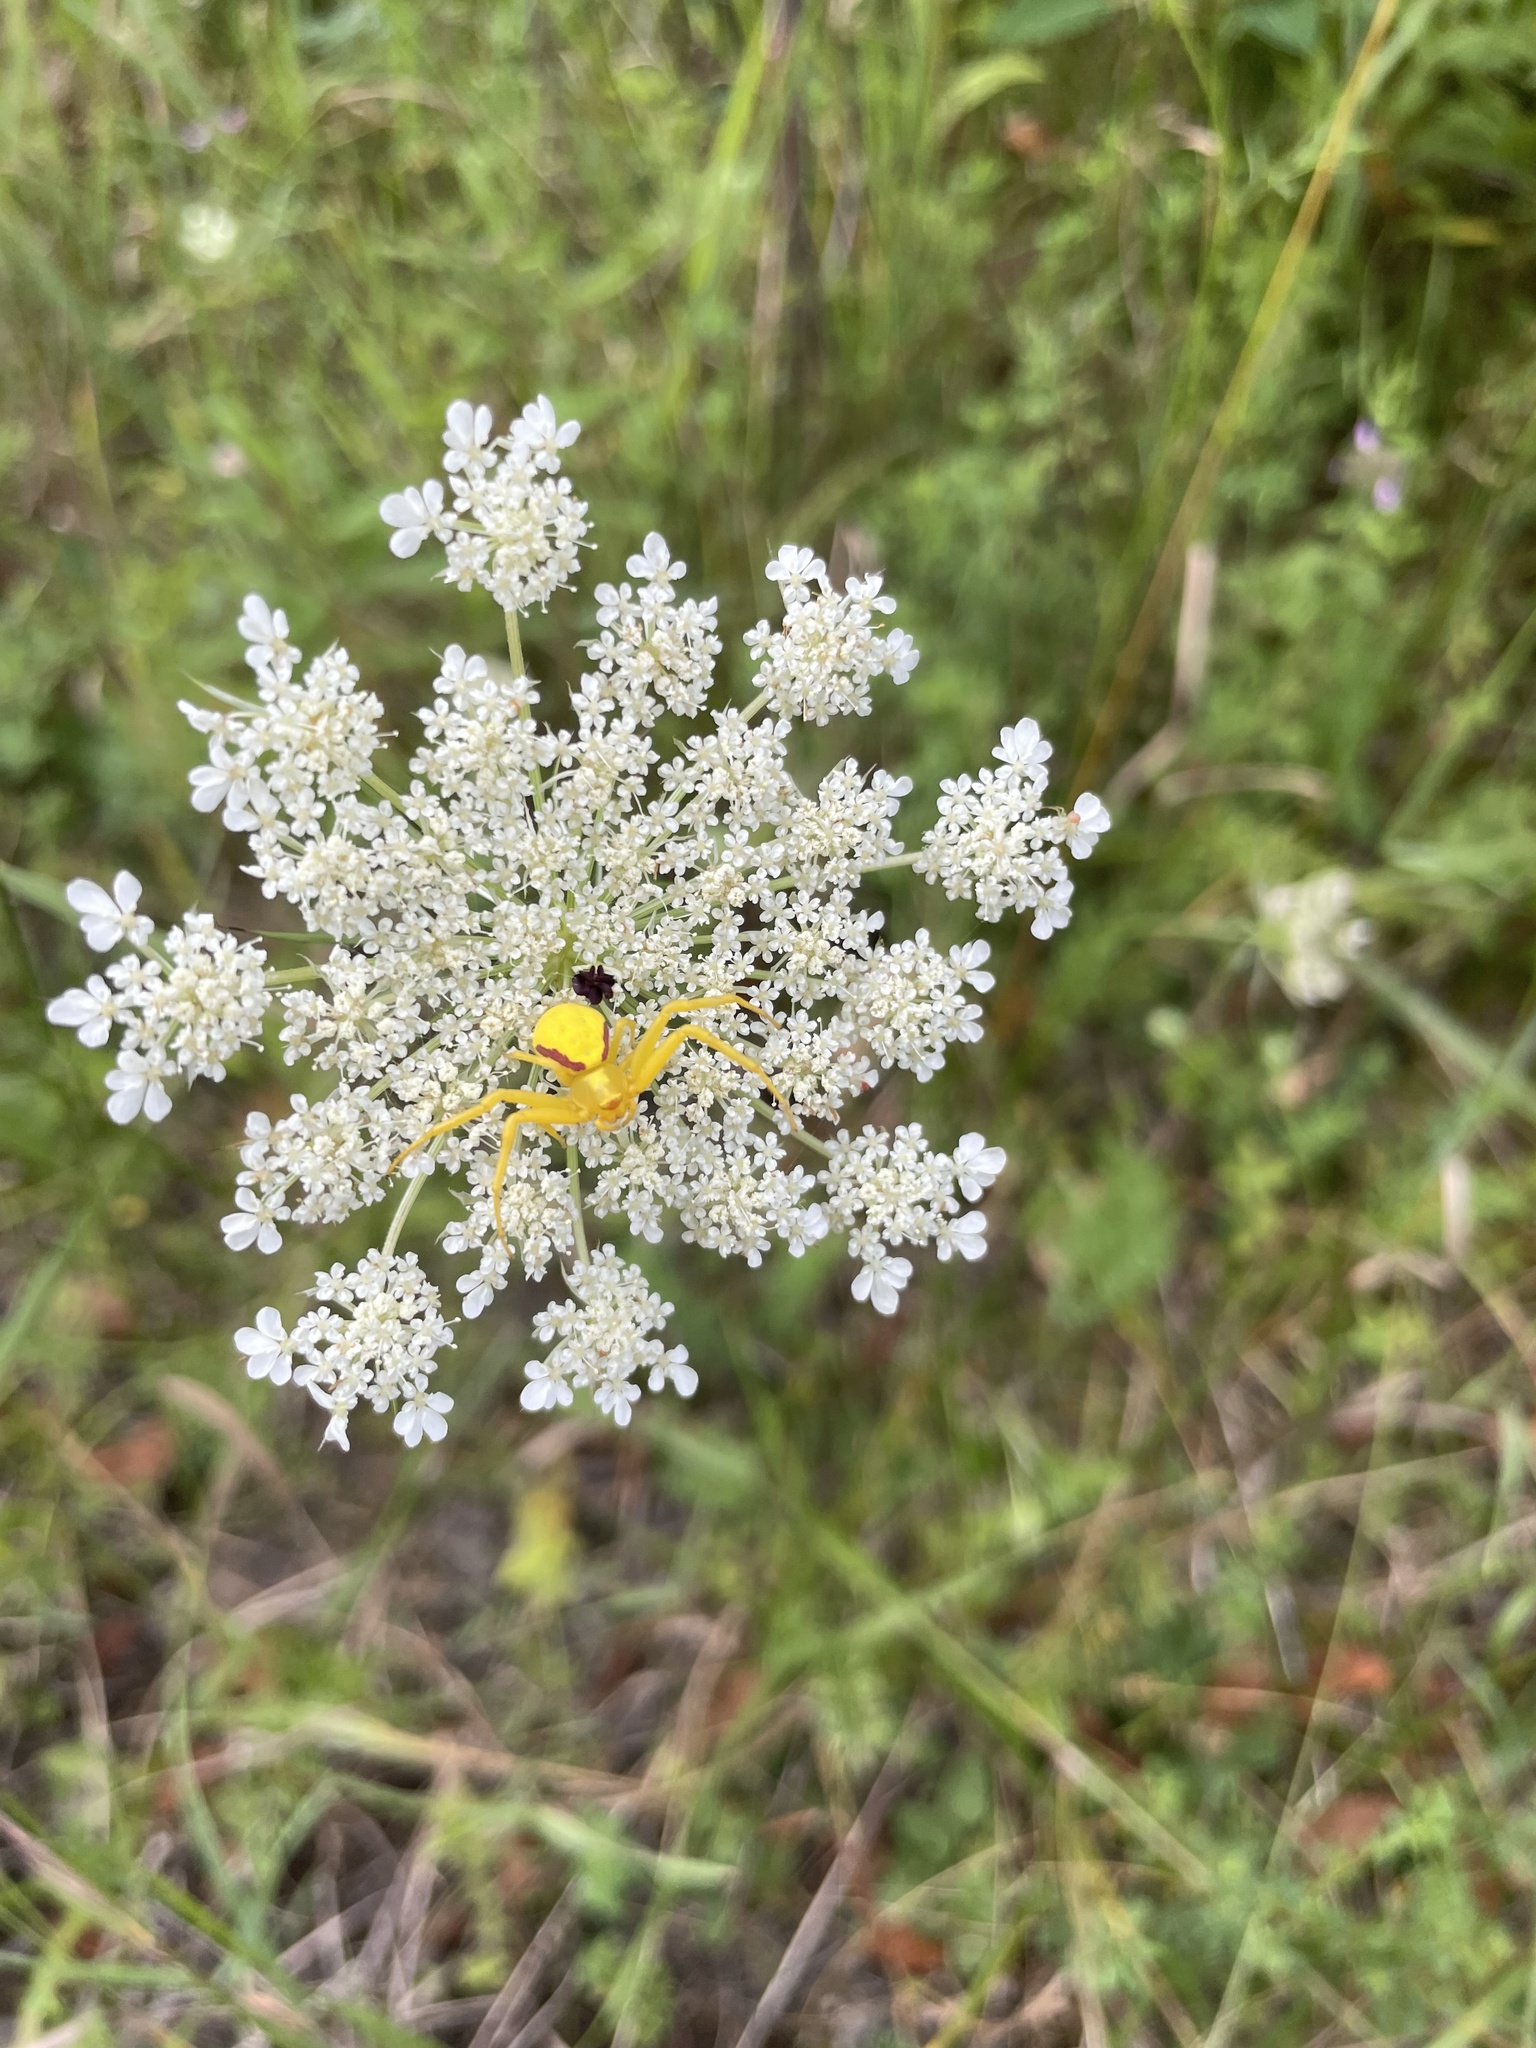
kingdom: Animalia
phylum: Arthropoda
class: Arachnida
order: Araneae
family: Thomisidae
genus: Misumena
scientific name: Misumena vatia
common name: Goldenrod crab spider
